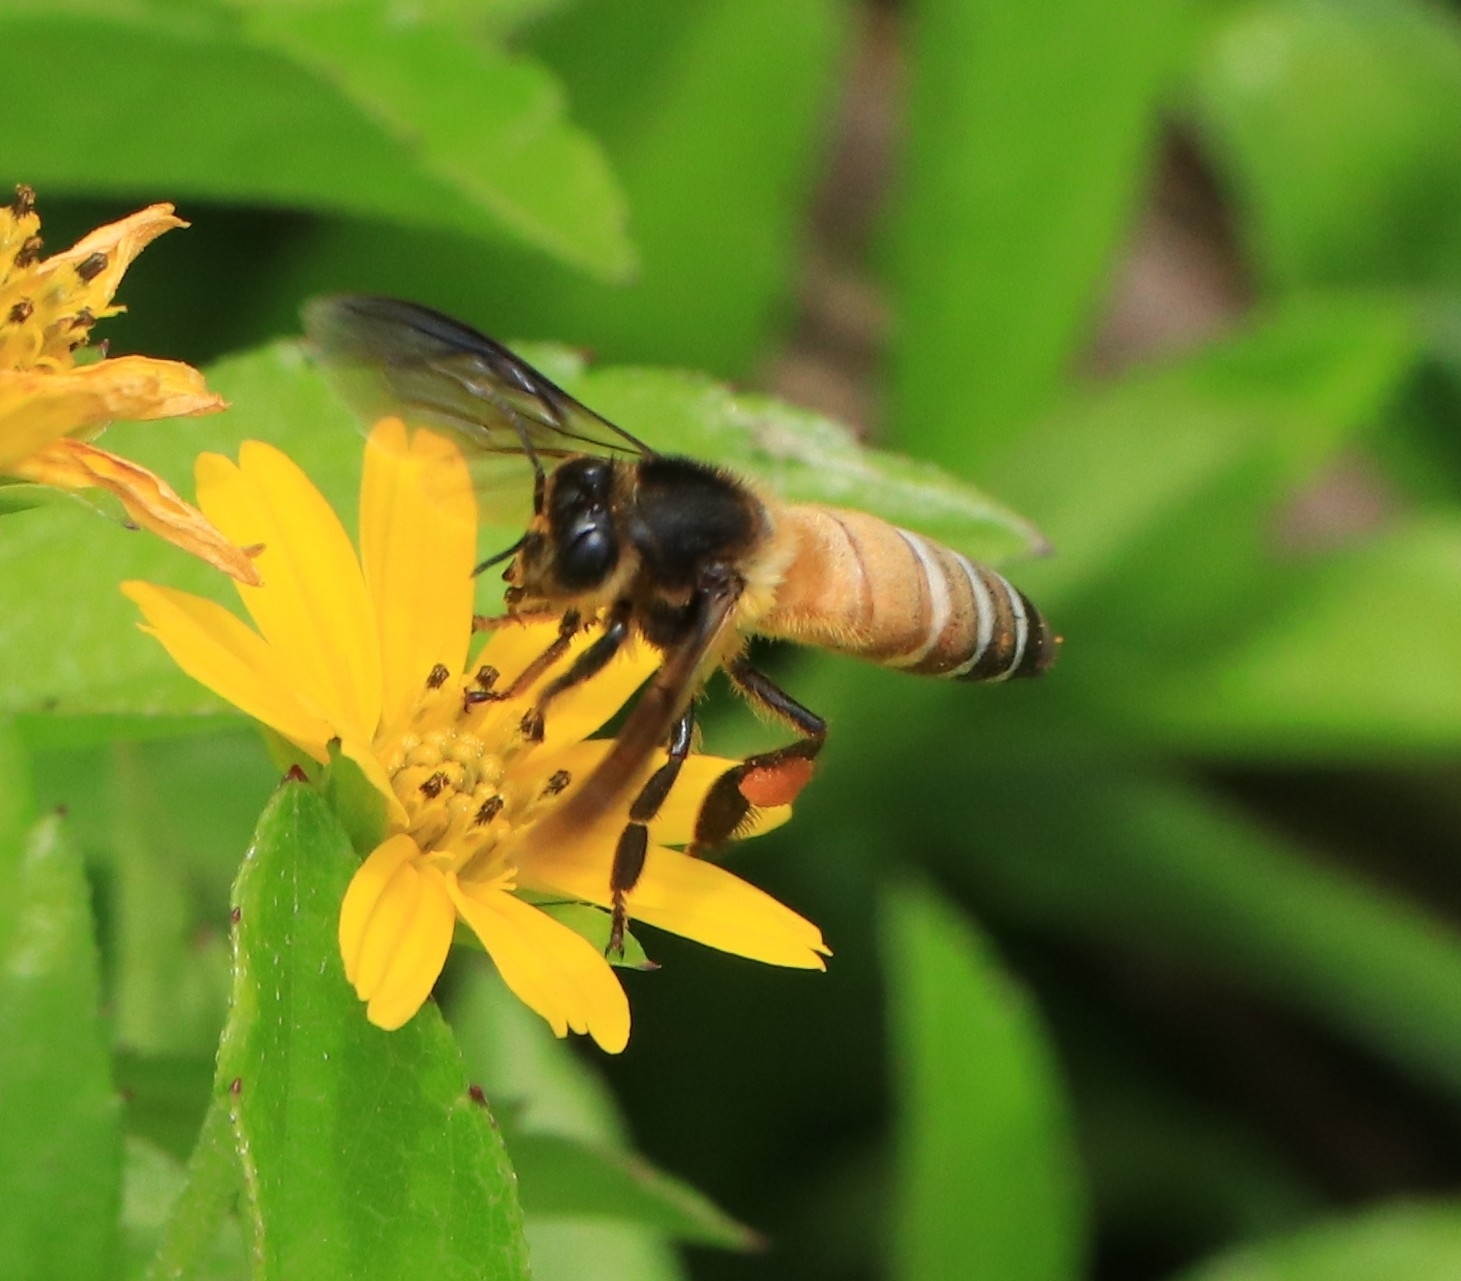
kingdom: Animalia
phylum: Arthropoda
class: Insecta
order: Hymenoptera
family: Apidae
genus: Apis
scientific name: Apis dorsata
